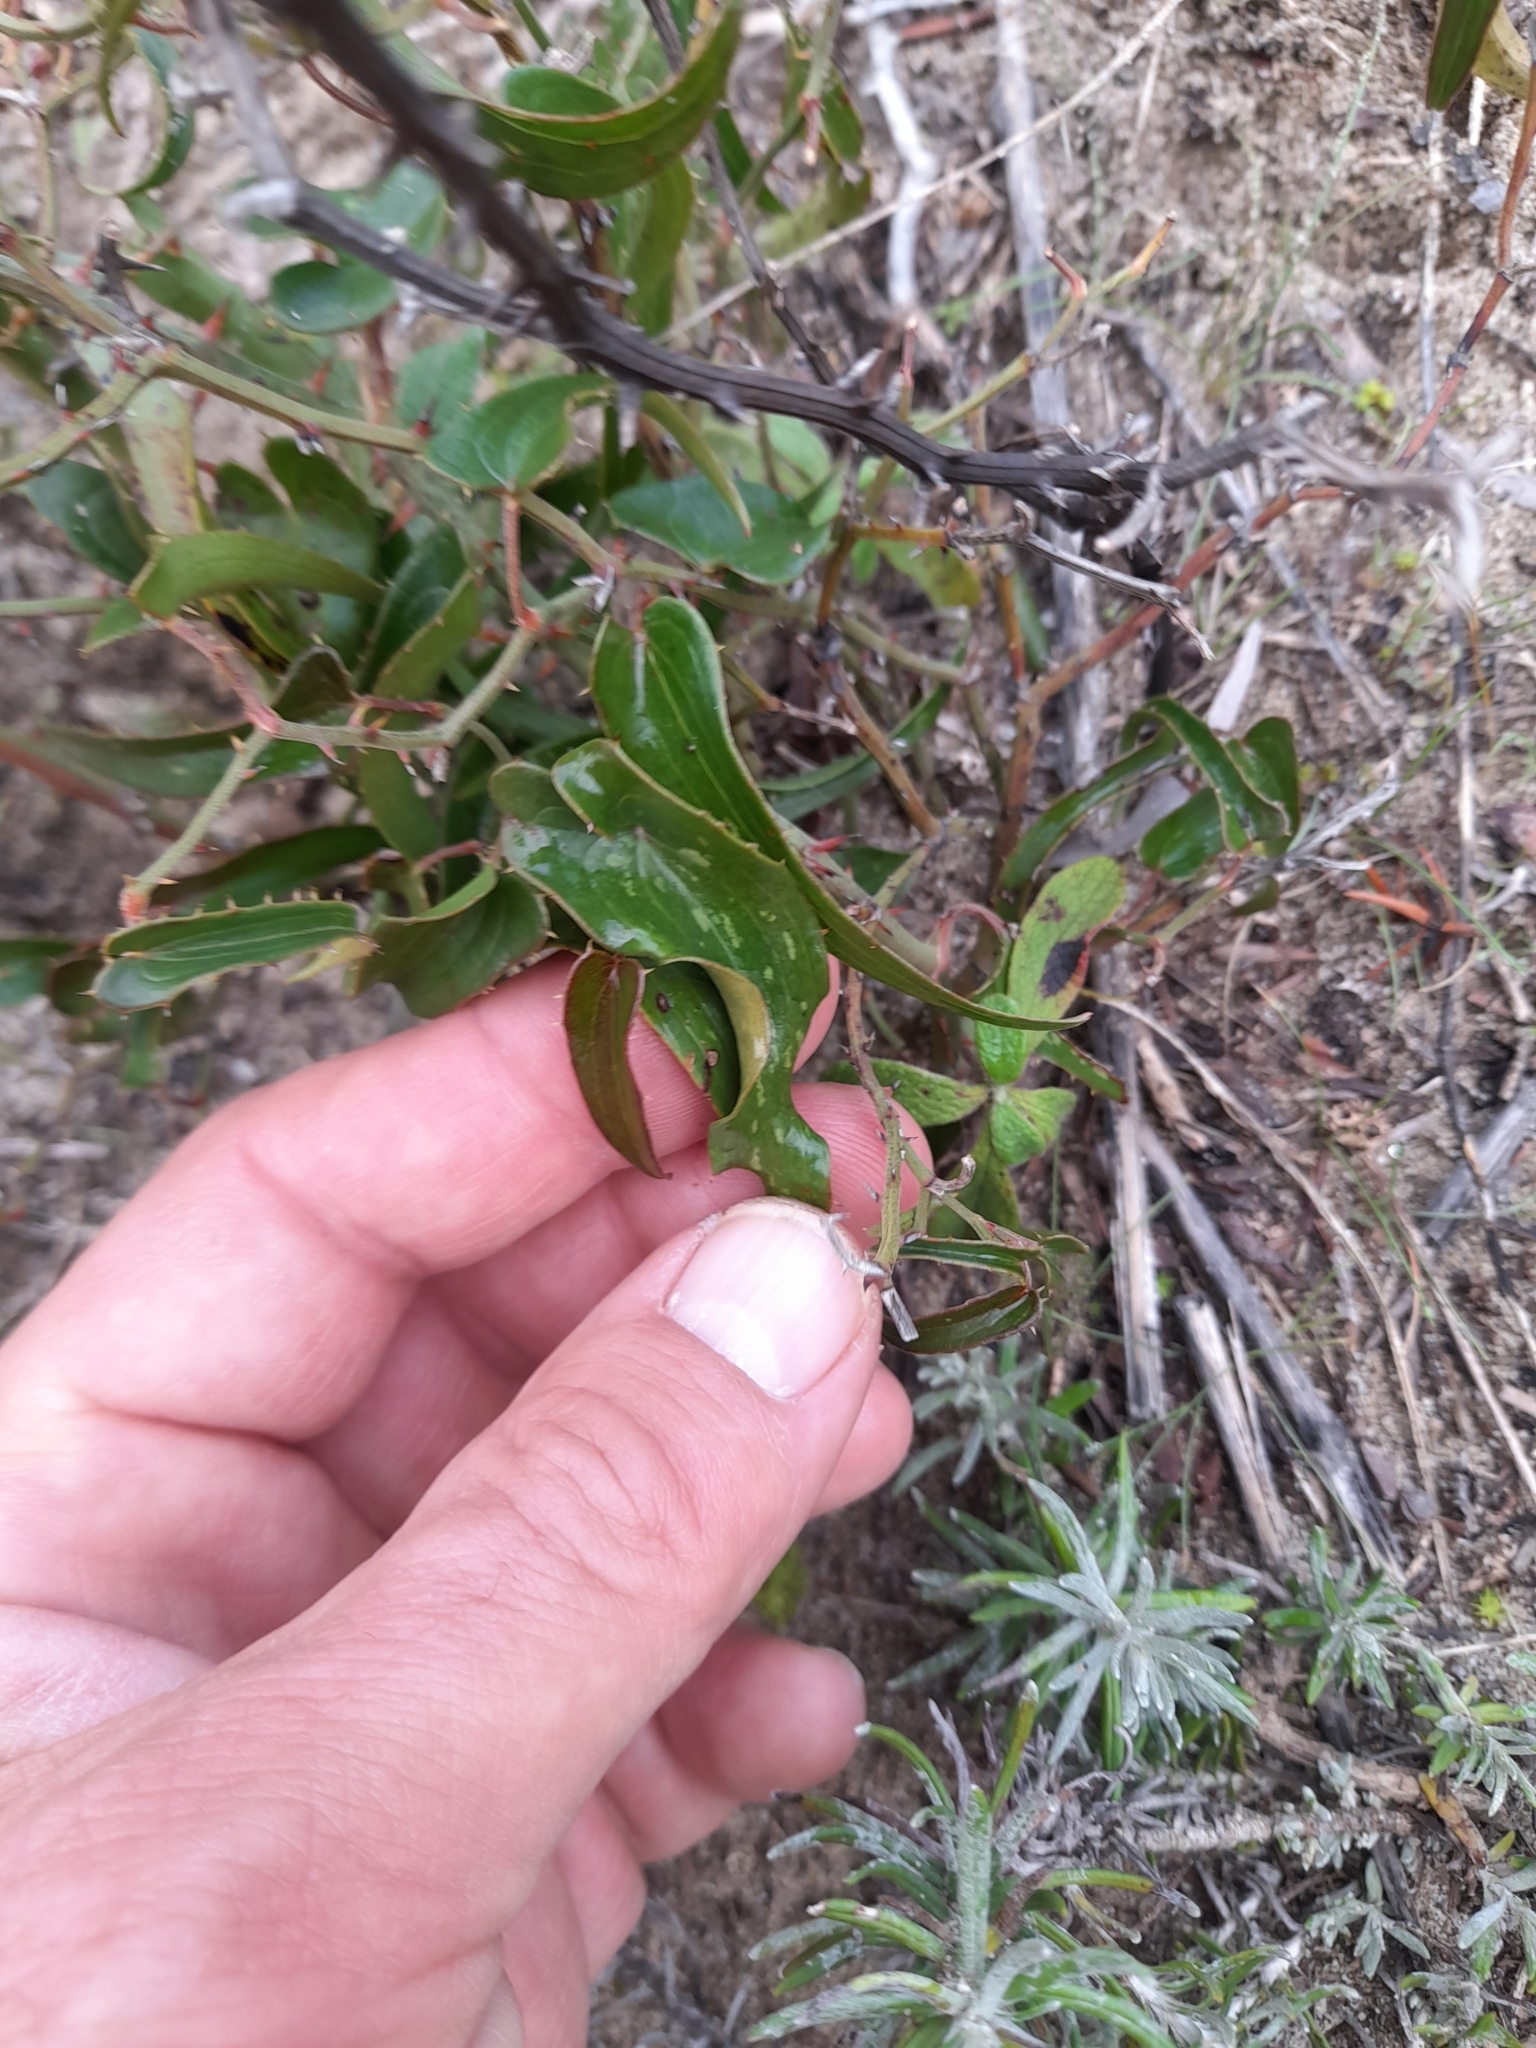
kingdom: Plantae
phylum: Tracheophyta
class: Liliopsida
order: Liliales
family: Smilacaceae
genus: Smilax
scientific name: Smilax aspera
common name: Common smilax
